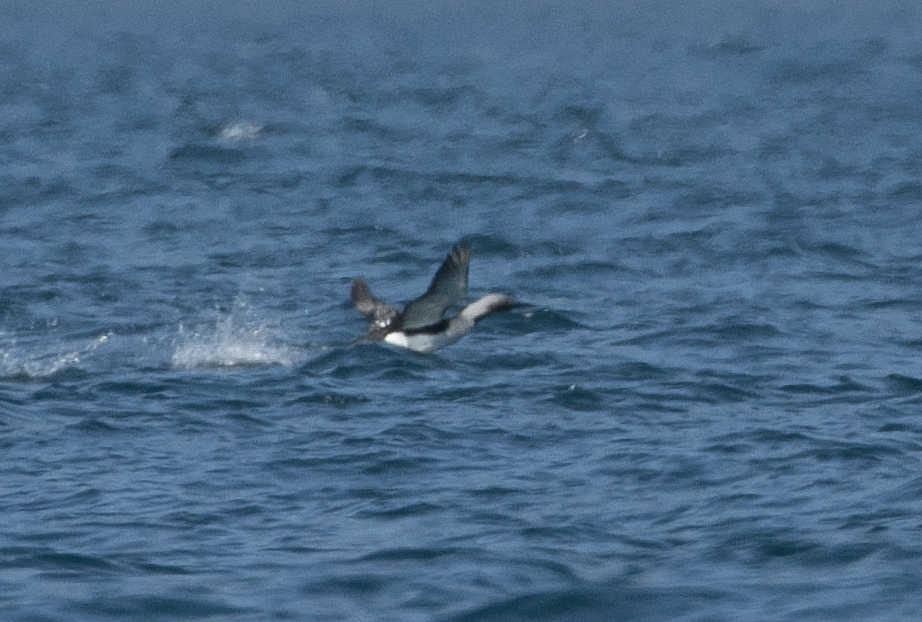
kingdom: Animalia
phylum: Chordata
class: Aves
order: Gaviiformes
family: Gaviidae
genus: Gavia
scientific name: Gavia arctica
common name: Black-throated loon
